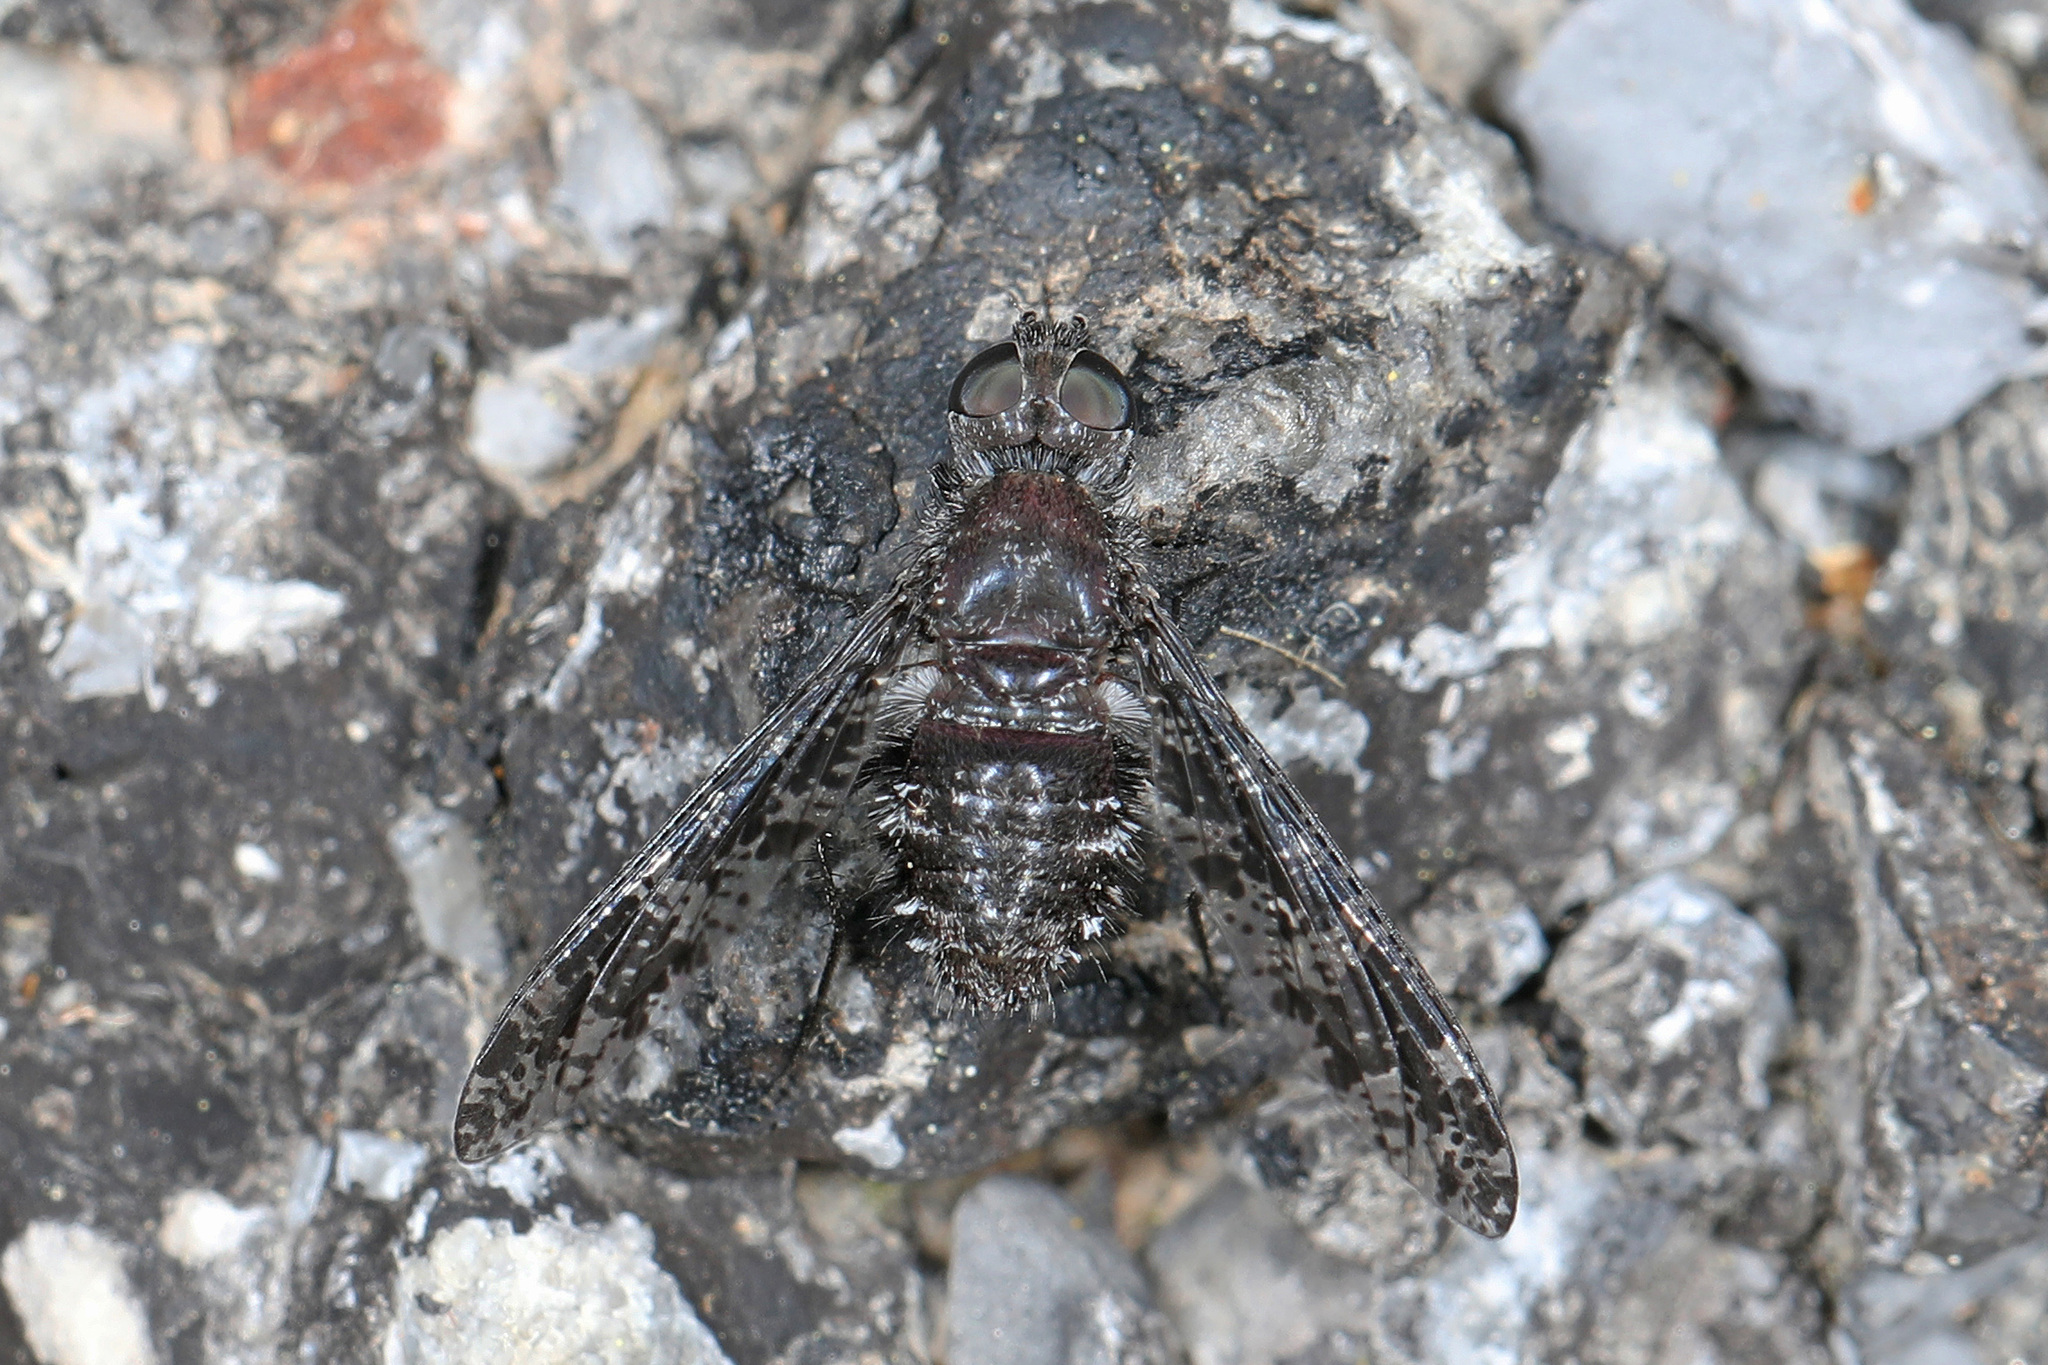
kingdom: Animalia
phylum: Arthropoda
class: Insecta
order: Diptera
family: Bombyliidae
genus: Anthrax
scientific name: Anthrax irroratus
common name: Spotted bee fly
